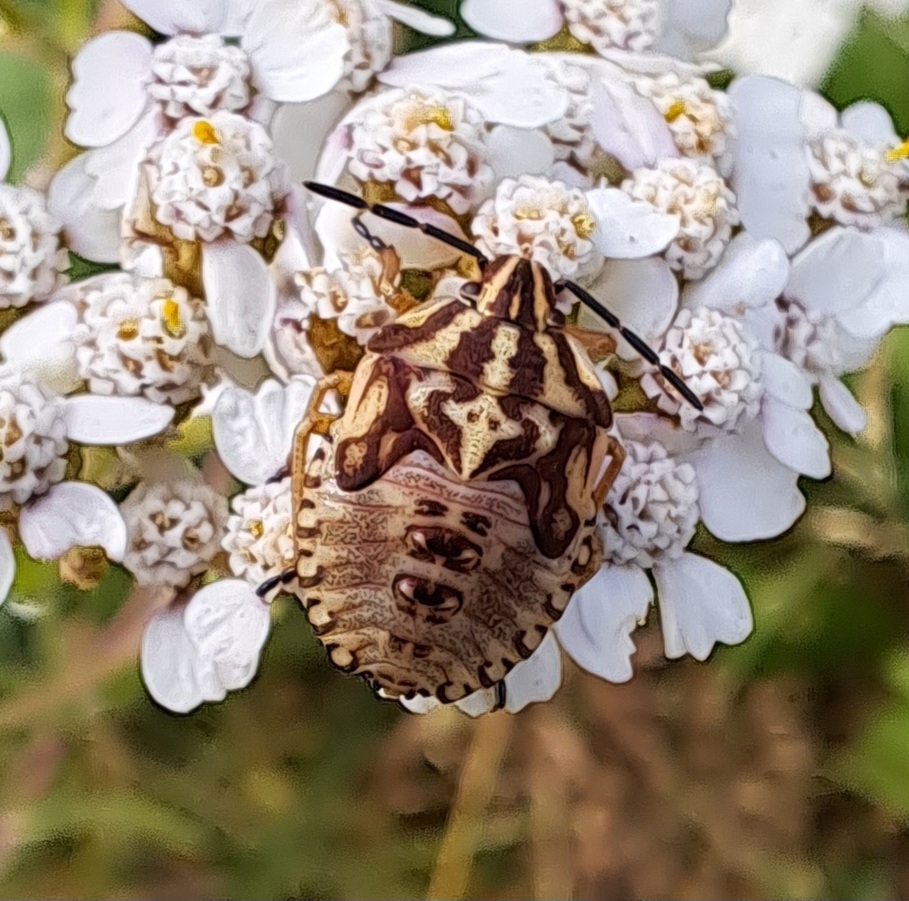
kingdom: Animalia
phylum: Arthropoda
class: Insecta
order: Hemiptera
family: Pentatomidae
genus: Carpocoris
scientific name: Carpocoris purpureipennis
